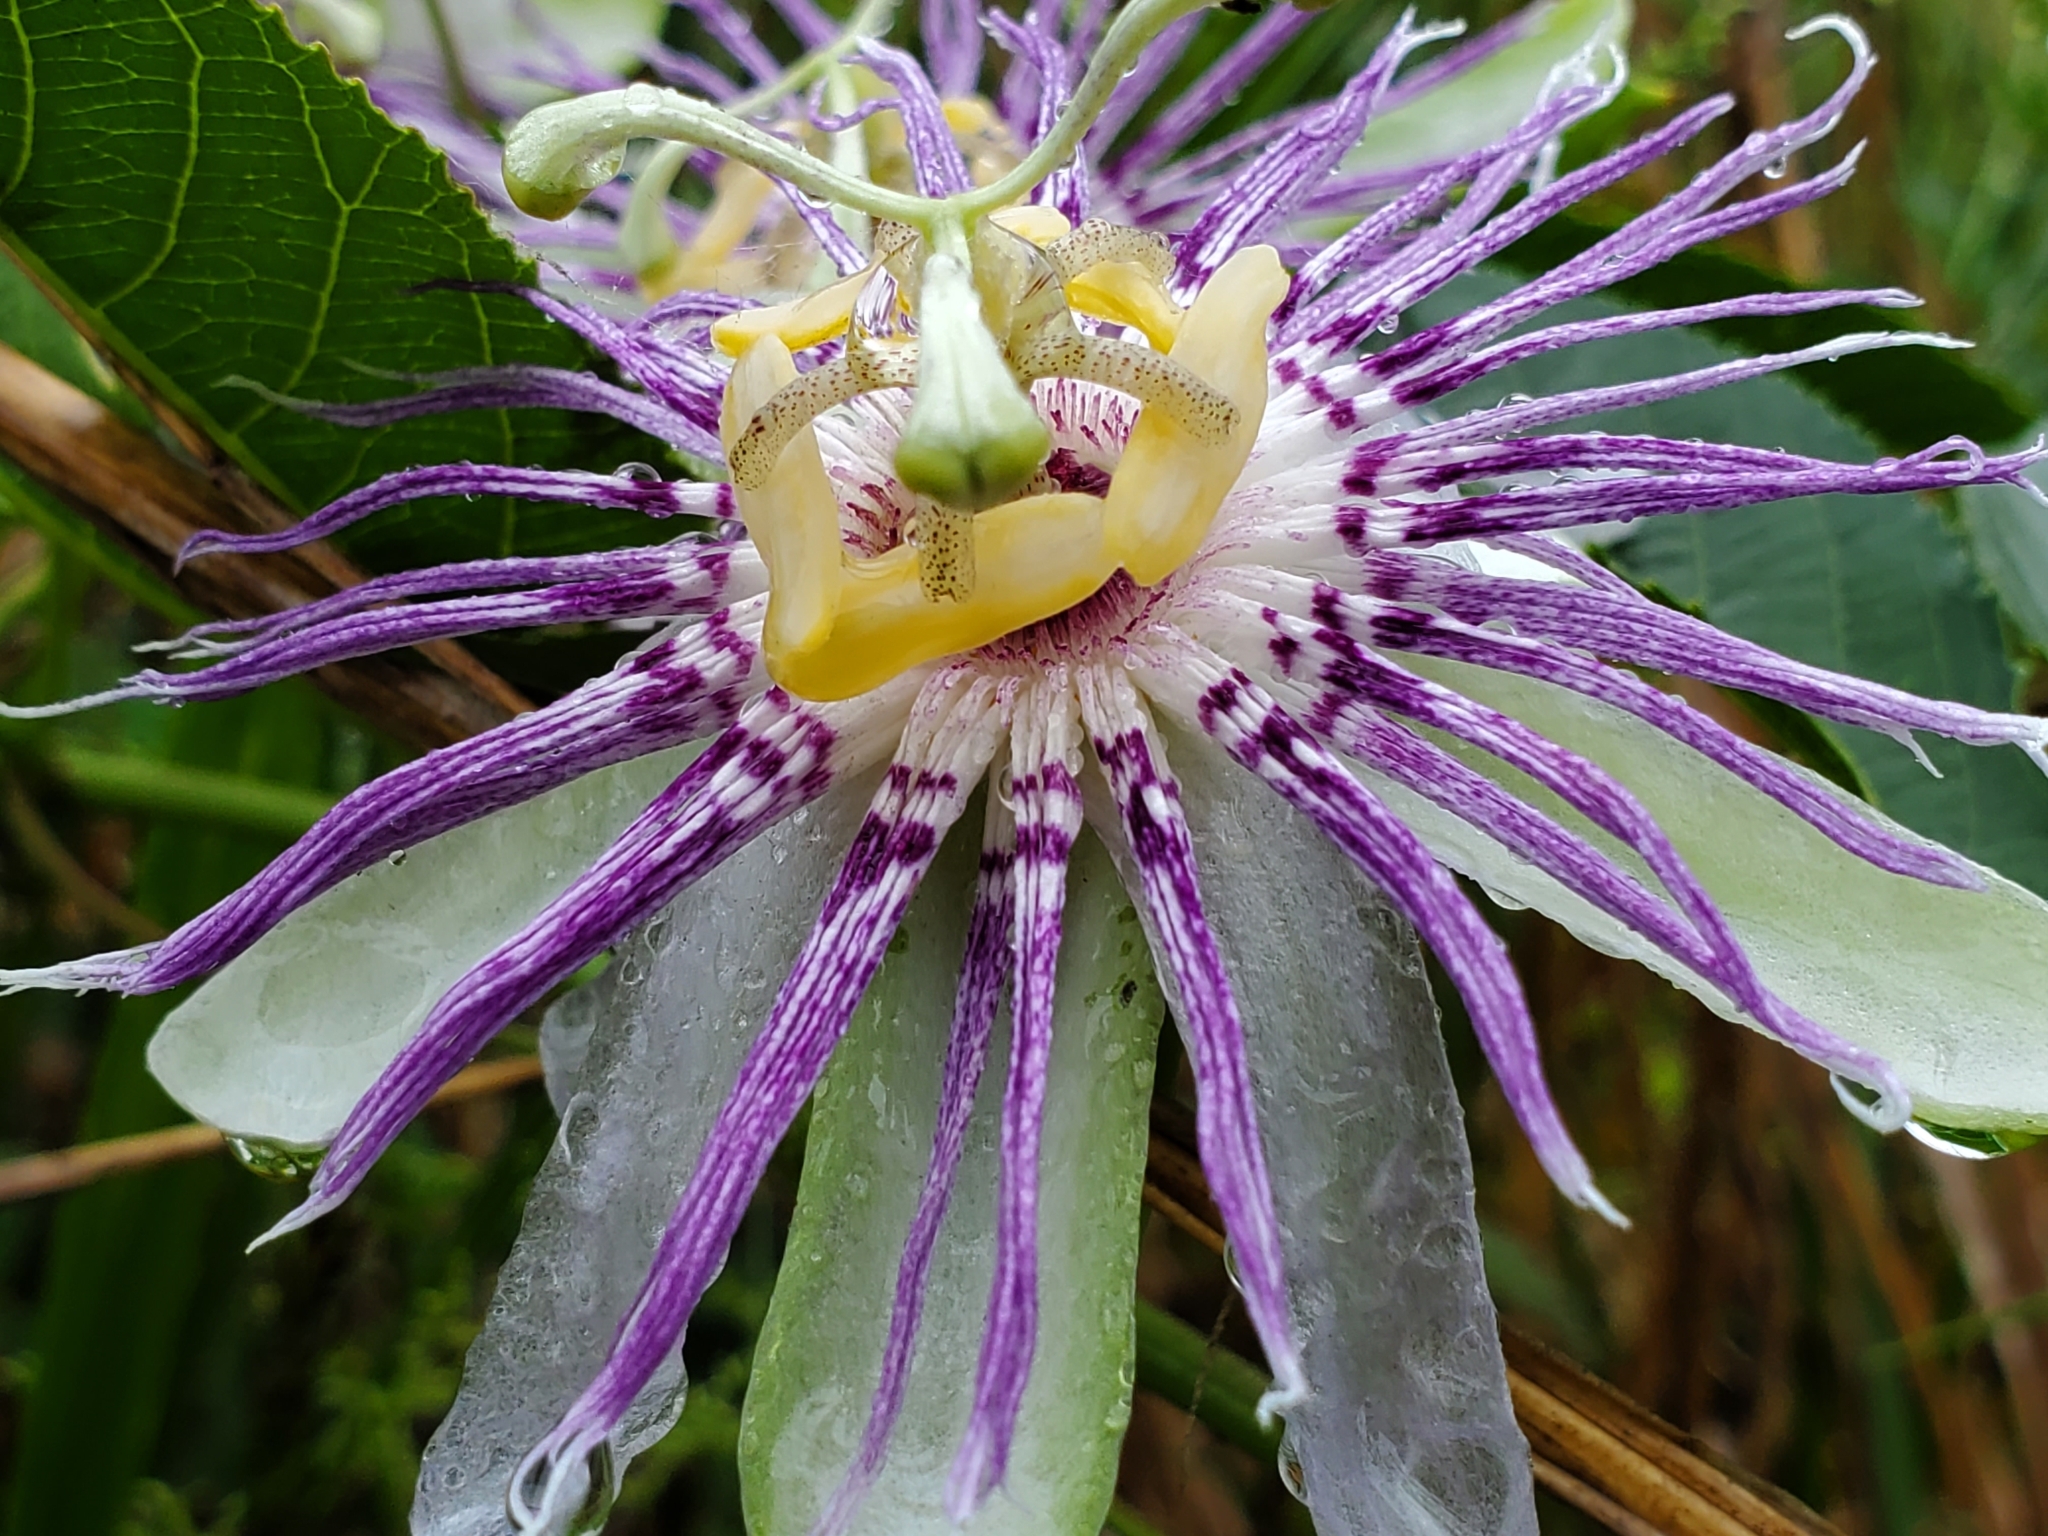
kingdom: Plantae
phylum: Tracheophyta
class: Magnoliopsida
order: Malpighiales
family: Passifloraceae
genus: Passiflora
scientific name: Passiflora incarnata
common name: Apricot-vine
